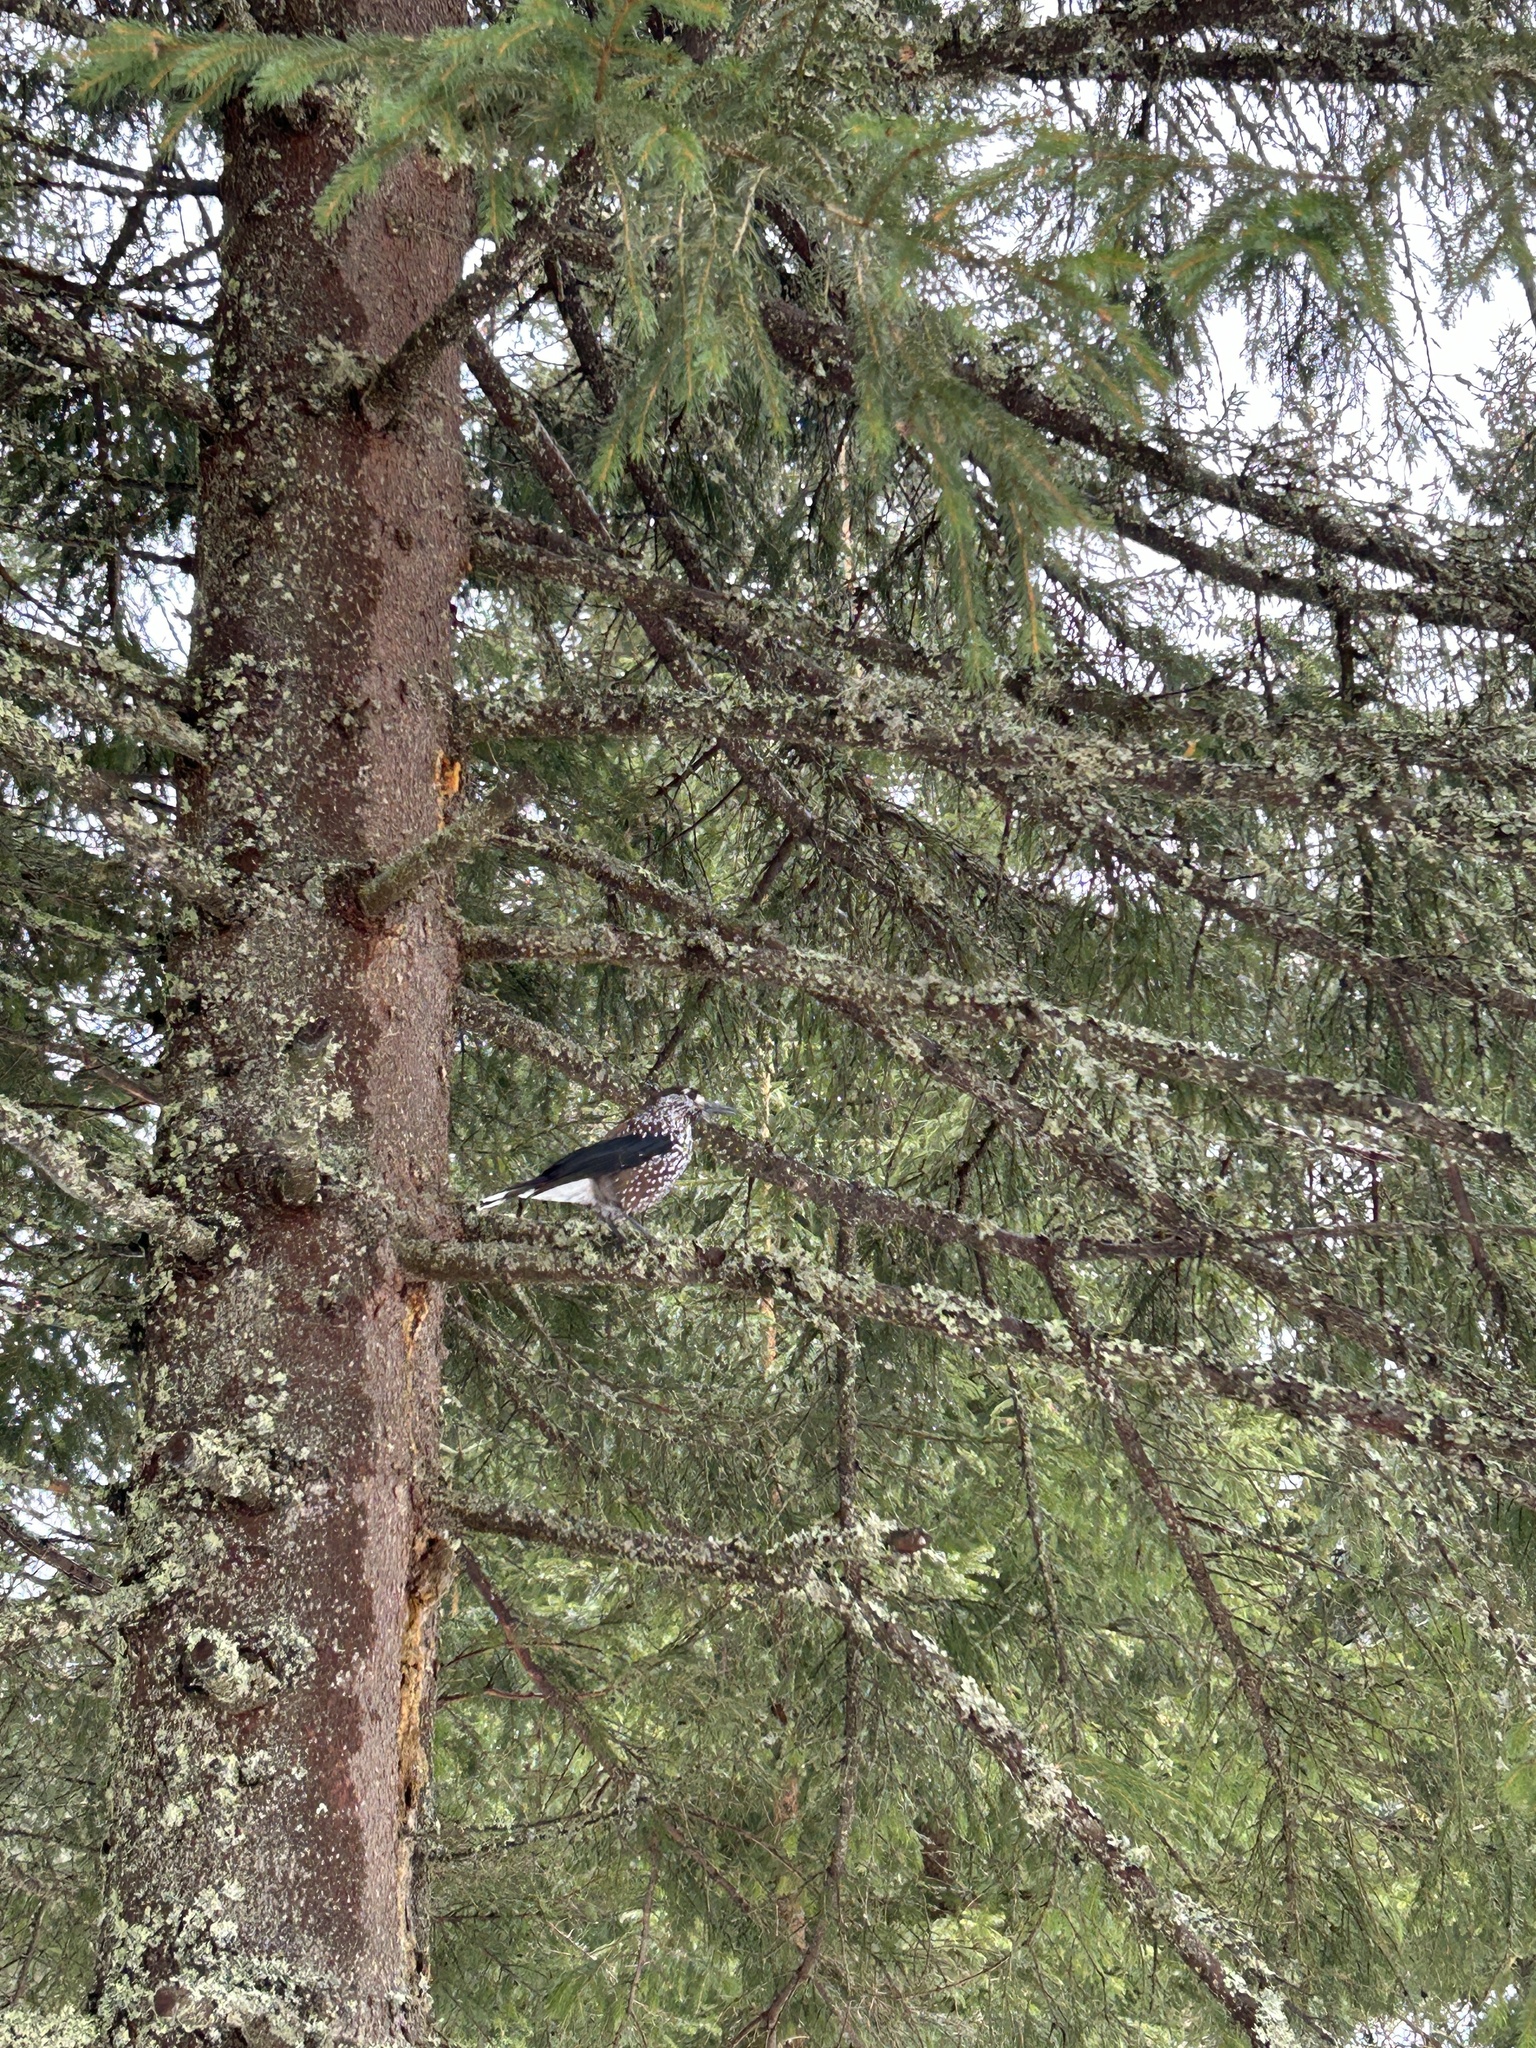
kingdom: Animalia
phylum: Chordata
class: Aves
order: Passeriformes
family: Corvidae
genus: Nucifraga
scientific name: Nucifraga caryocatactes
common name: Spotted nutcracker
